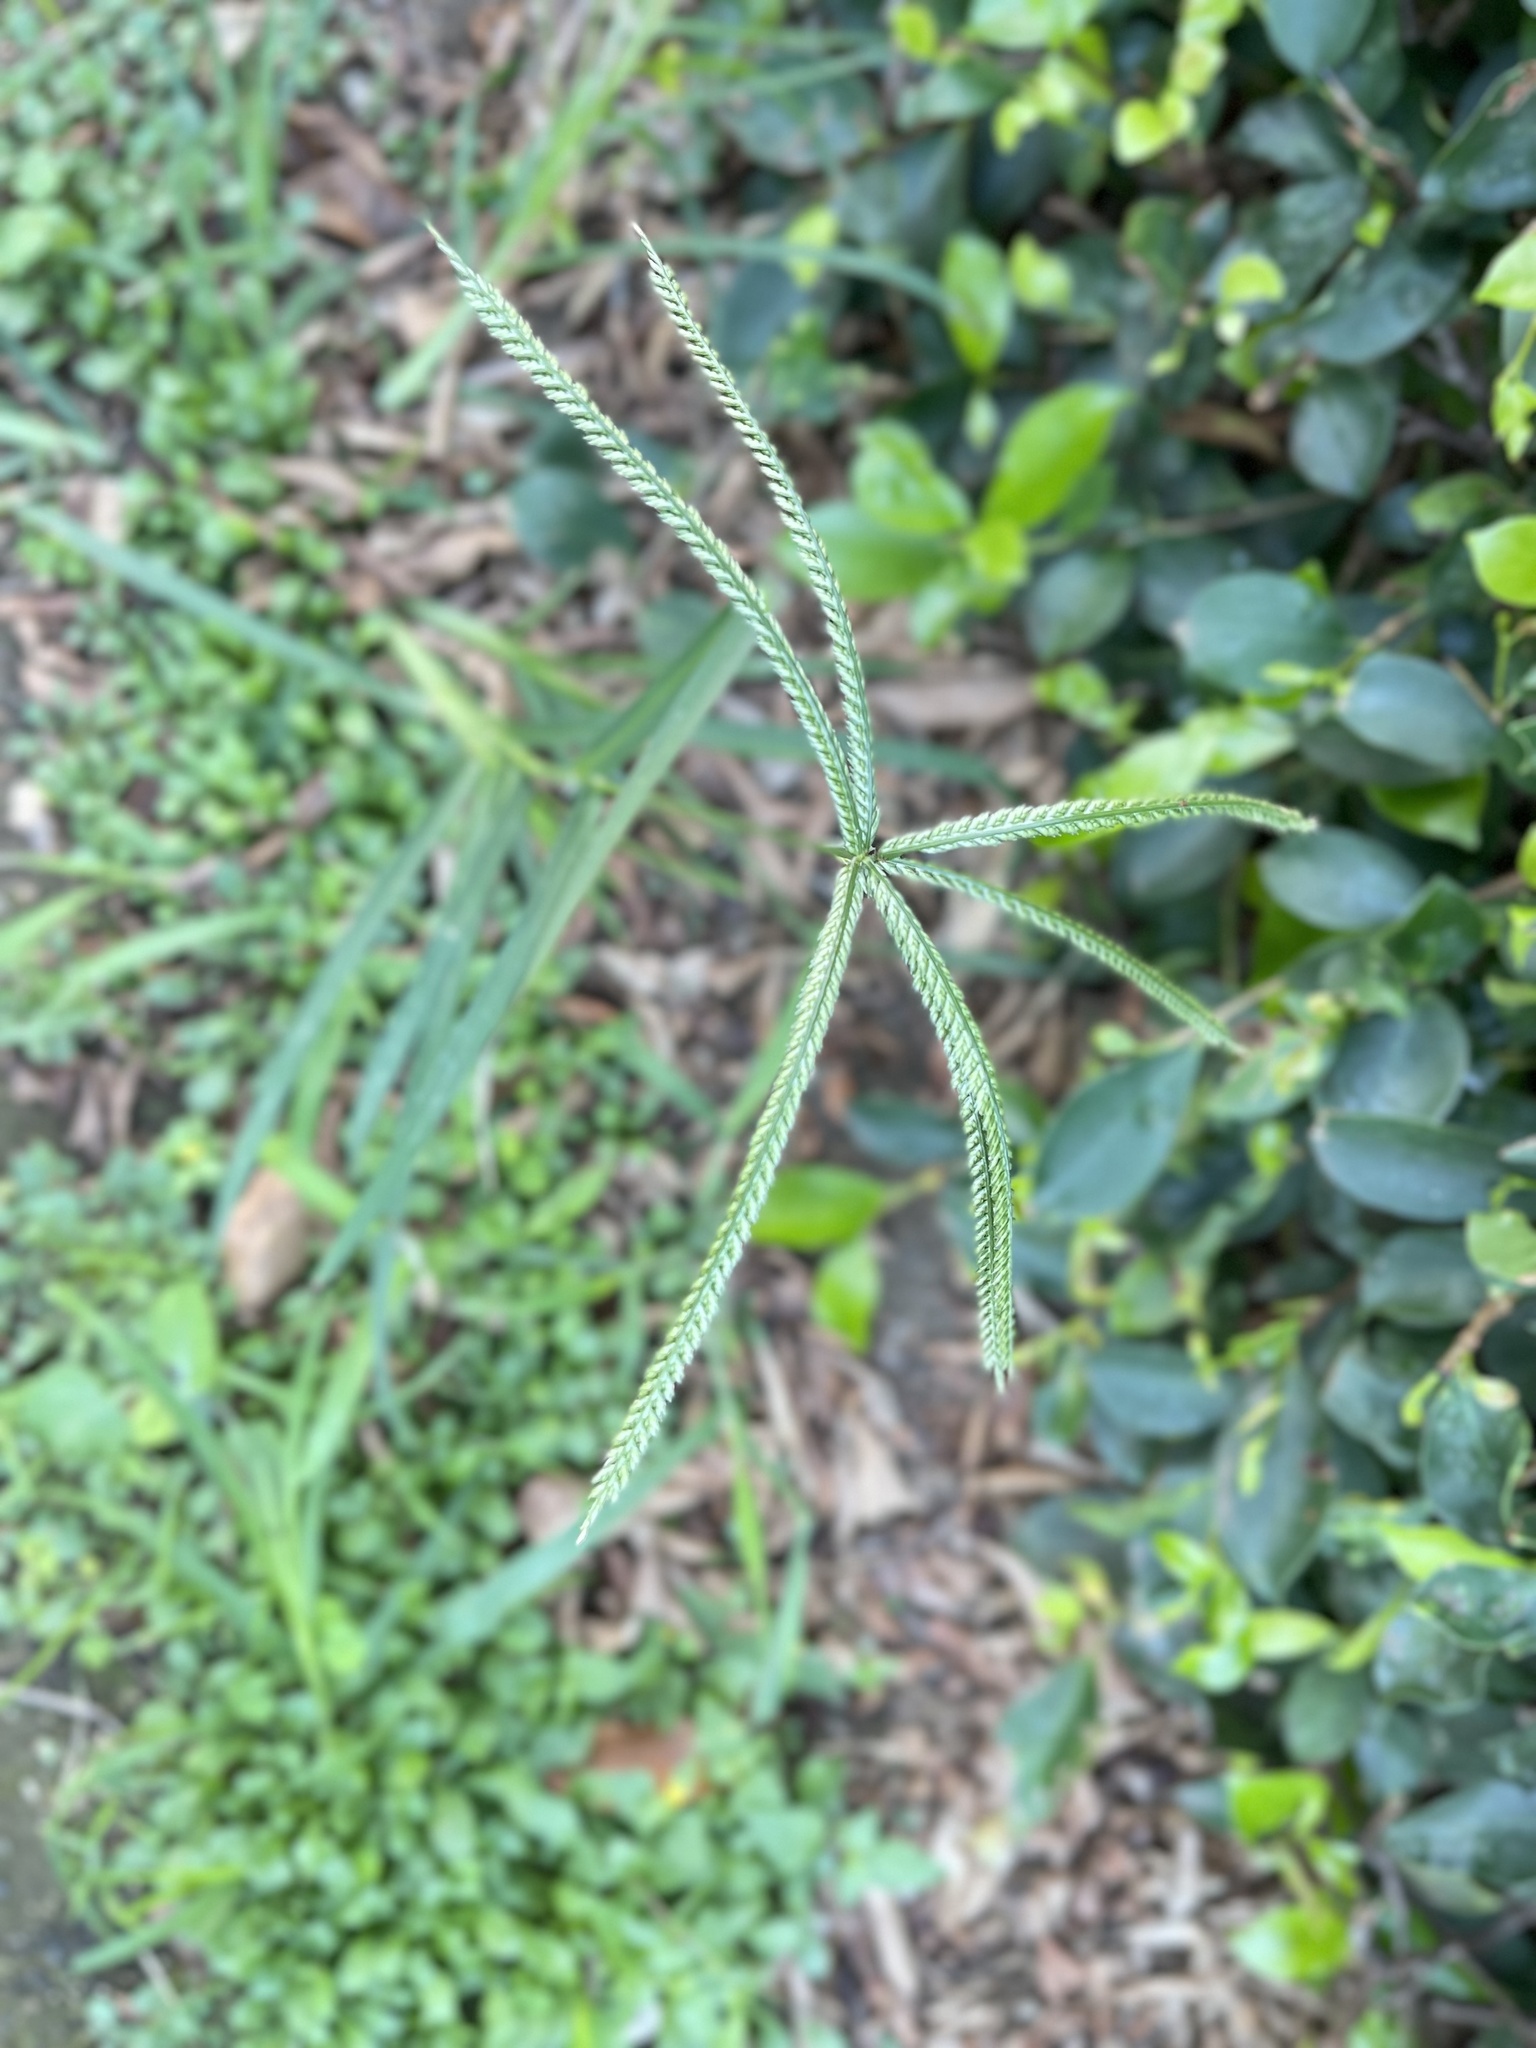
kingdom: Plantae
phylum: Tracheophyta
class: Liliopsida
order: Poales
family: Poaceae
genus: Eleusine
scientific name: Eleusine indica
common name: Yard-grass
